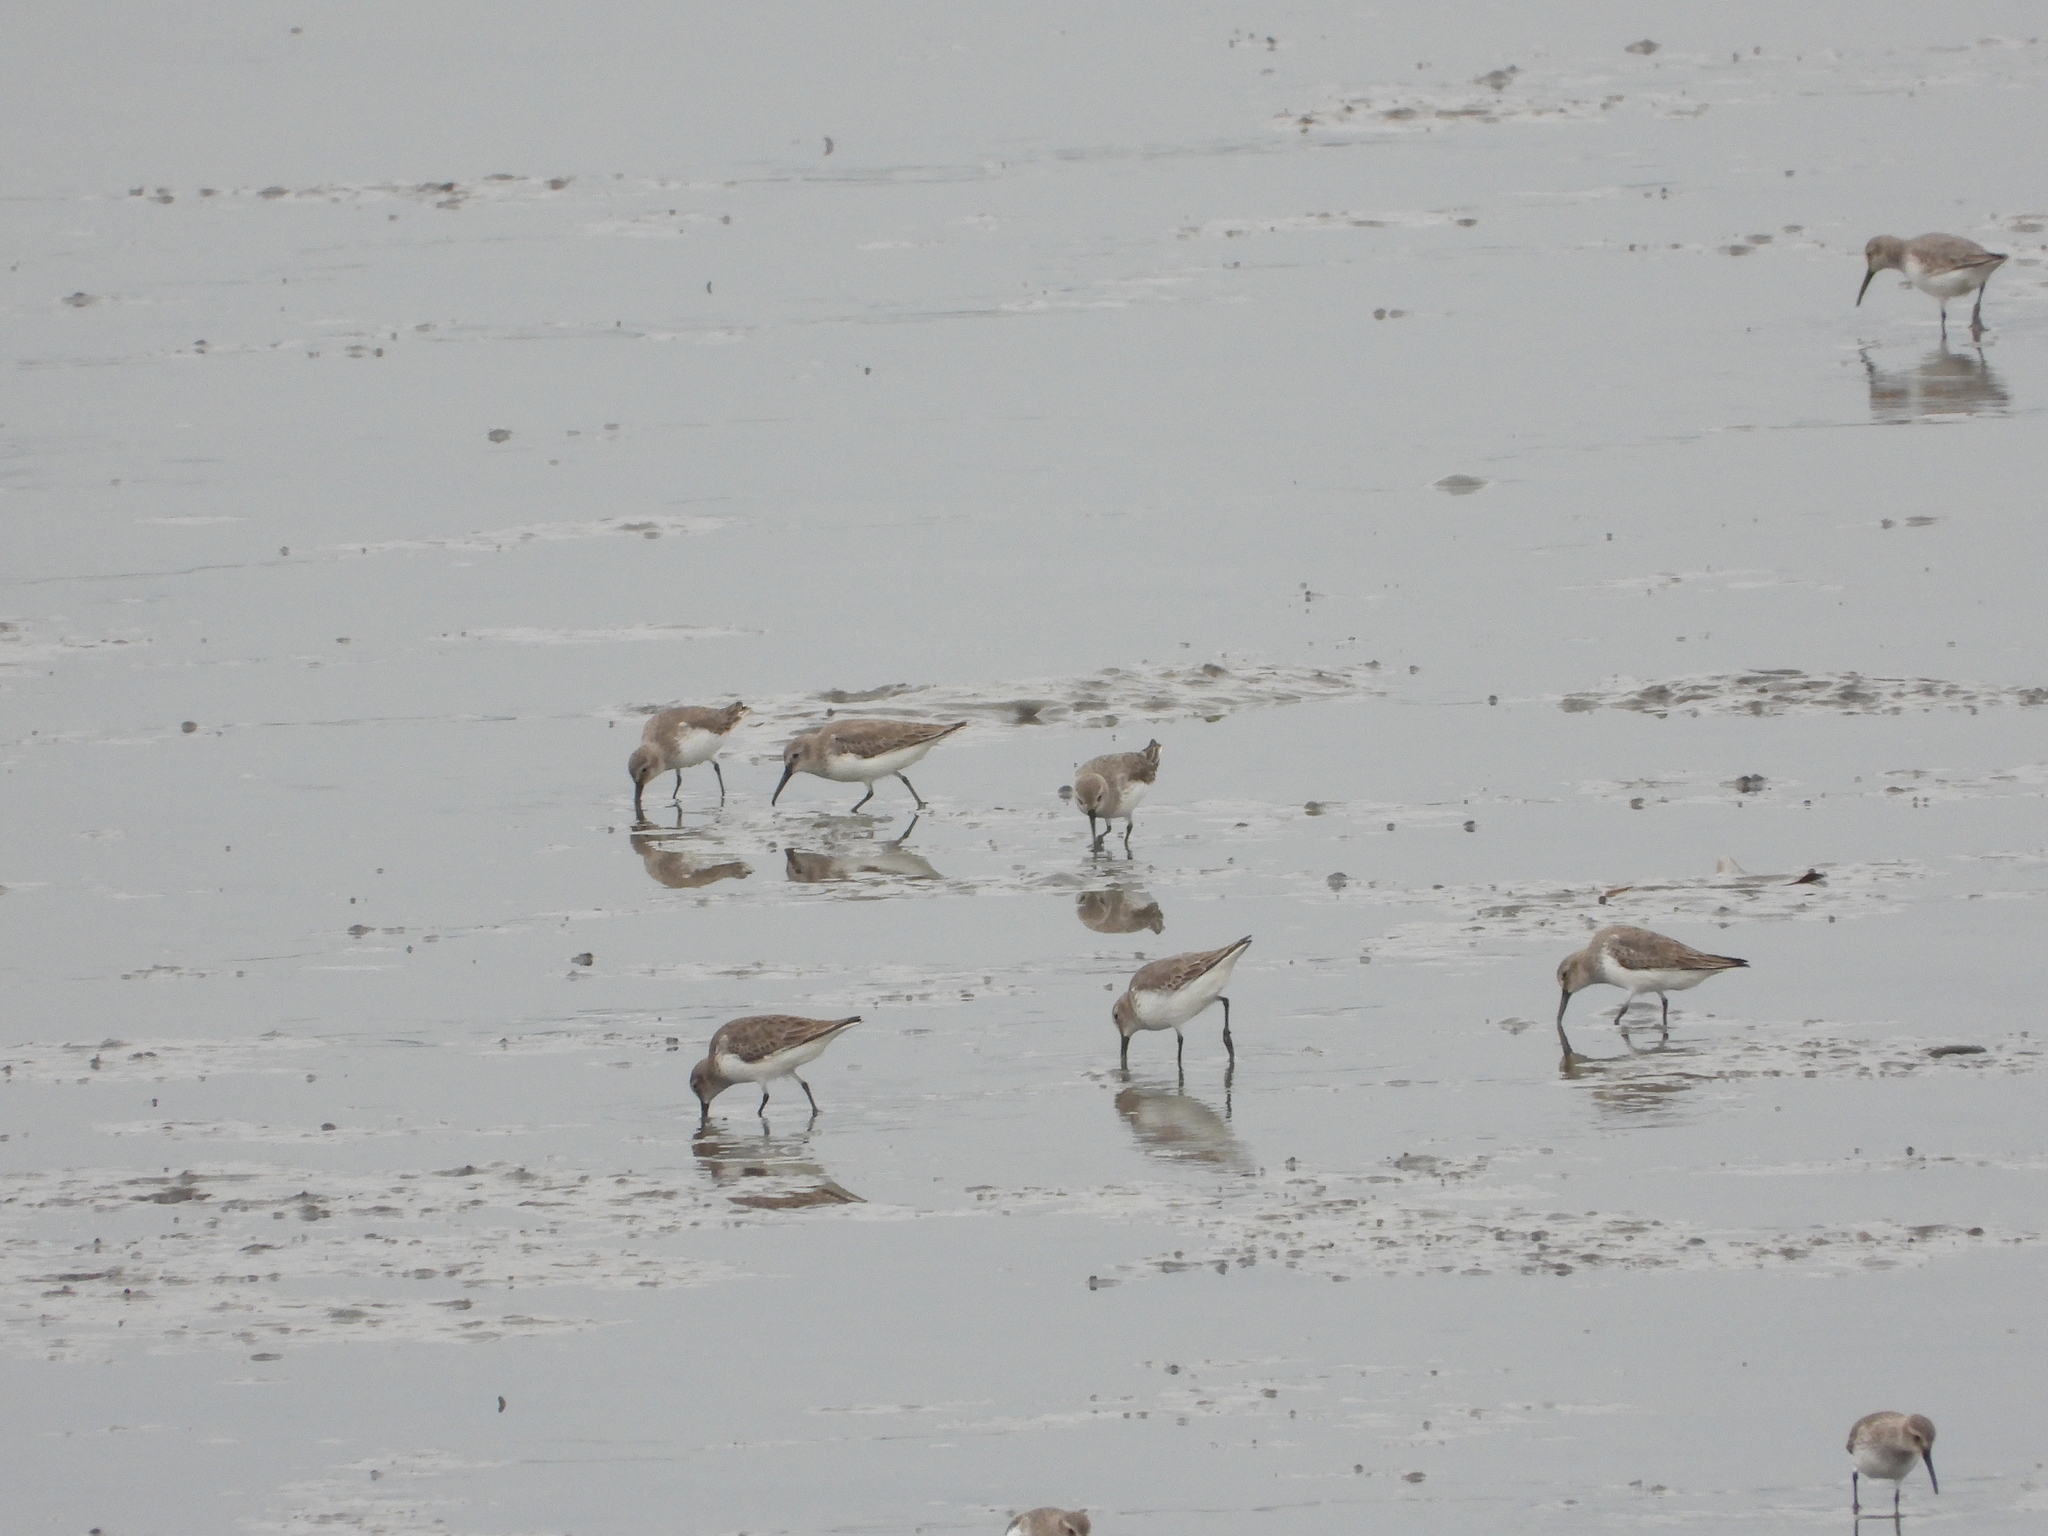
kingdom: Animalia
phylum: Chordata
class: Aves
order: Charadriiformes
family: Scolopacidae
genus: Calidris
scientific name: Calidris alpina
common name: Dunlin
